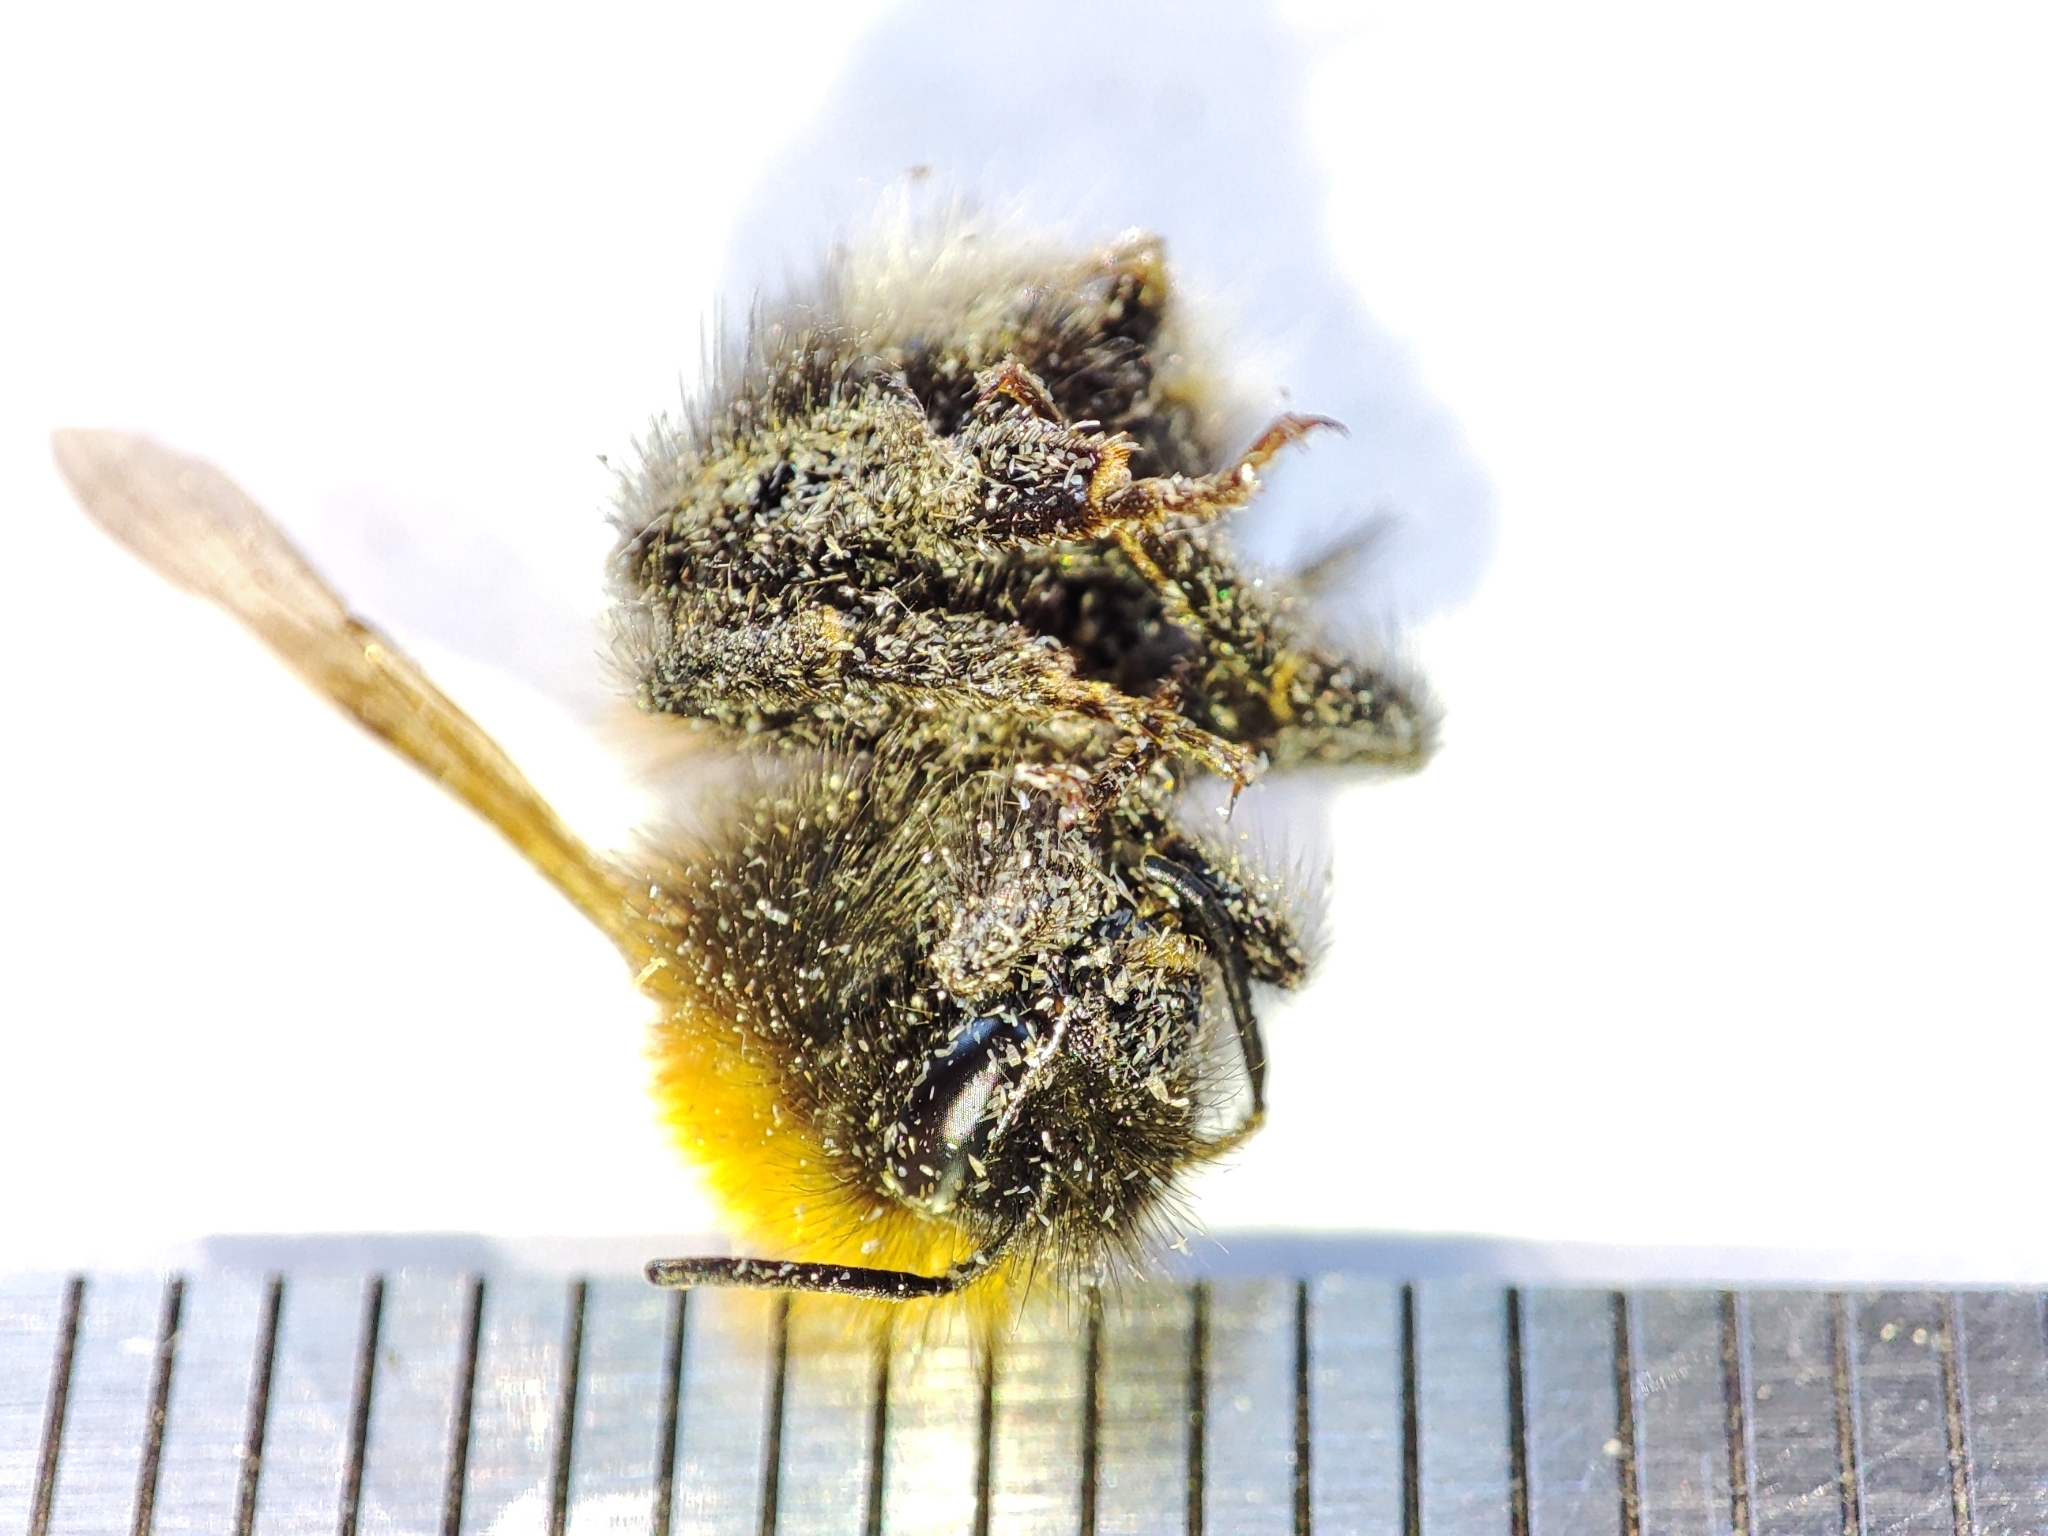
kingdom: Animalia
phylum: Arthropoda
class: Insecta
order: Hymenoptera
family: Apidae
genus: Bombus
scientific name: Bombus hypnorum
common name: New garden bumblebee
